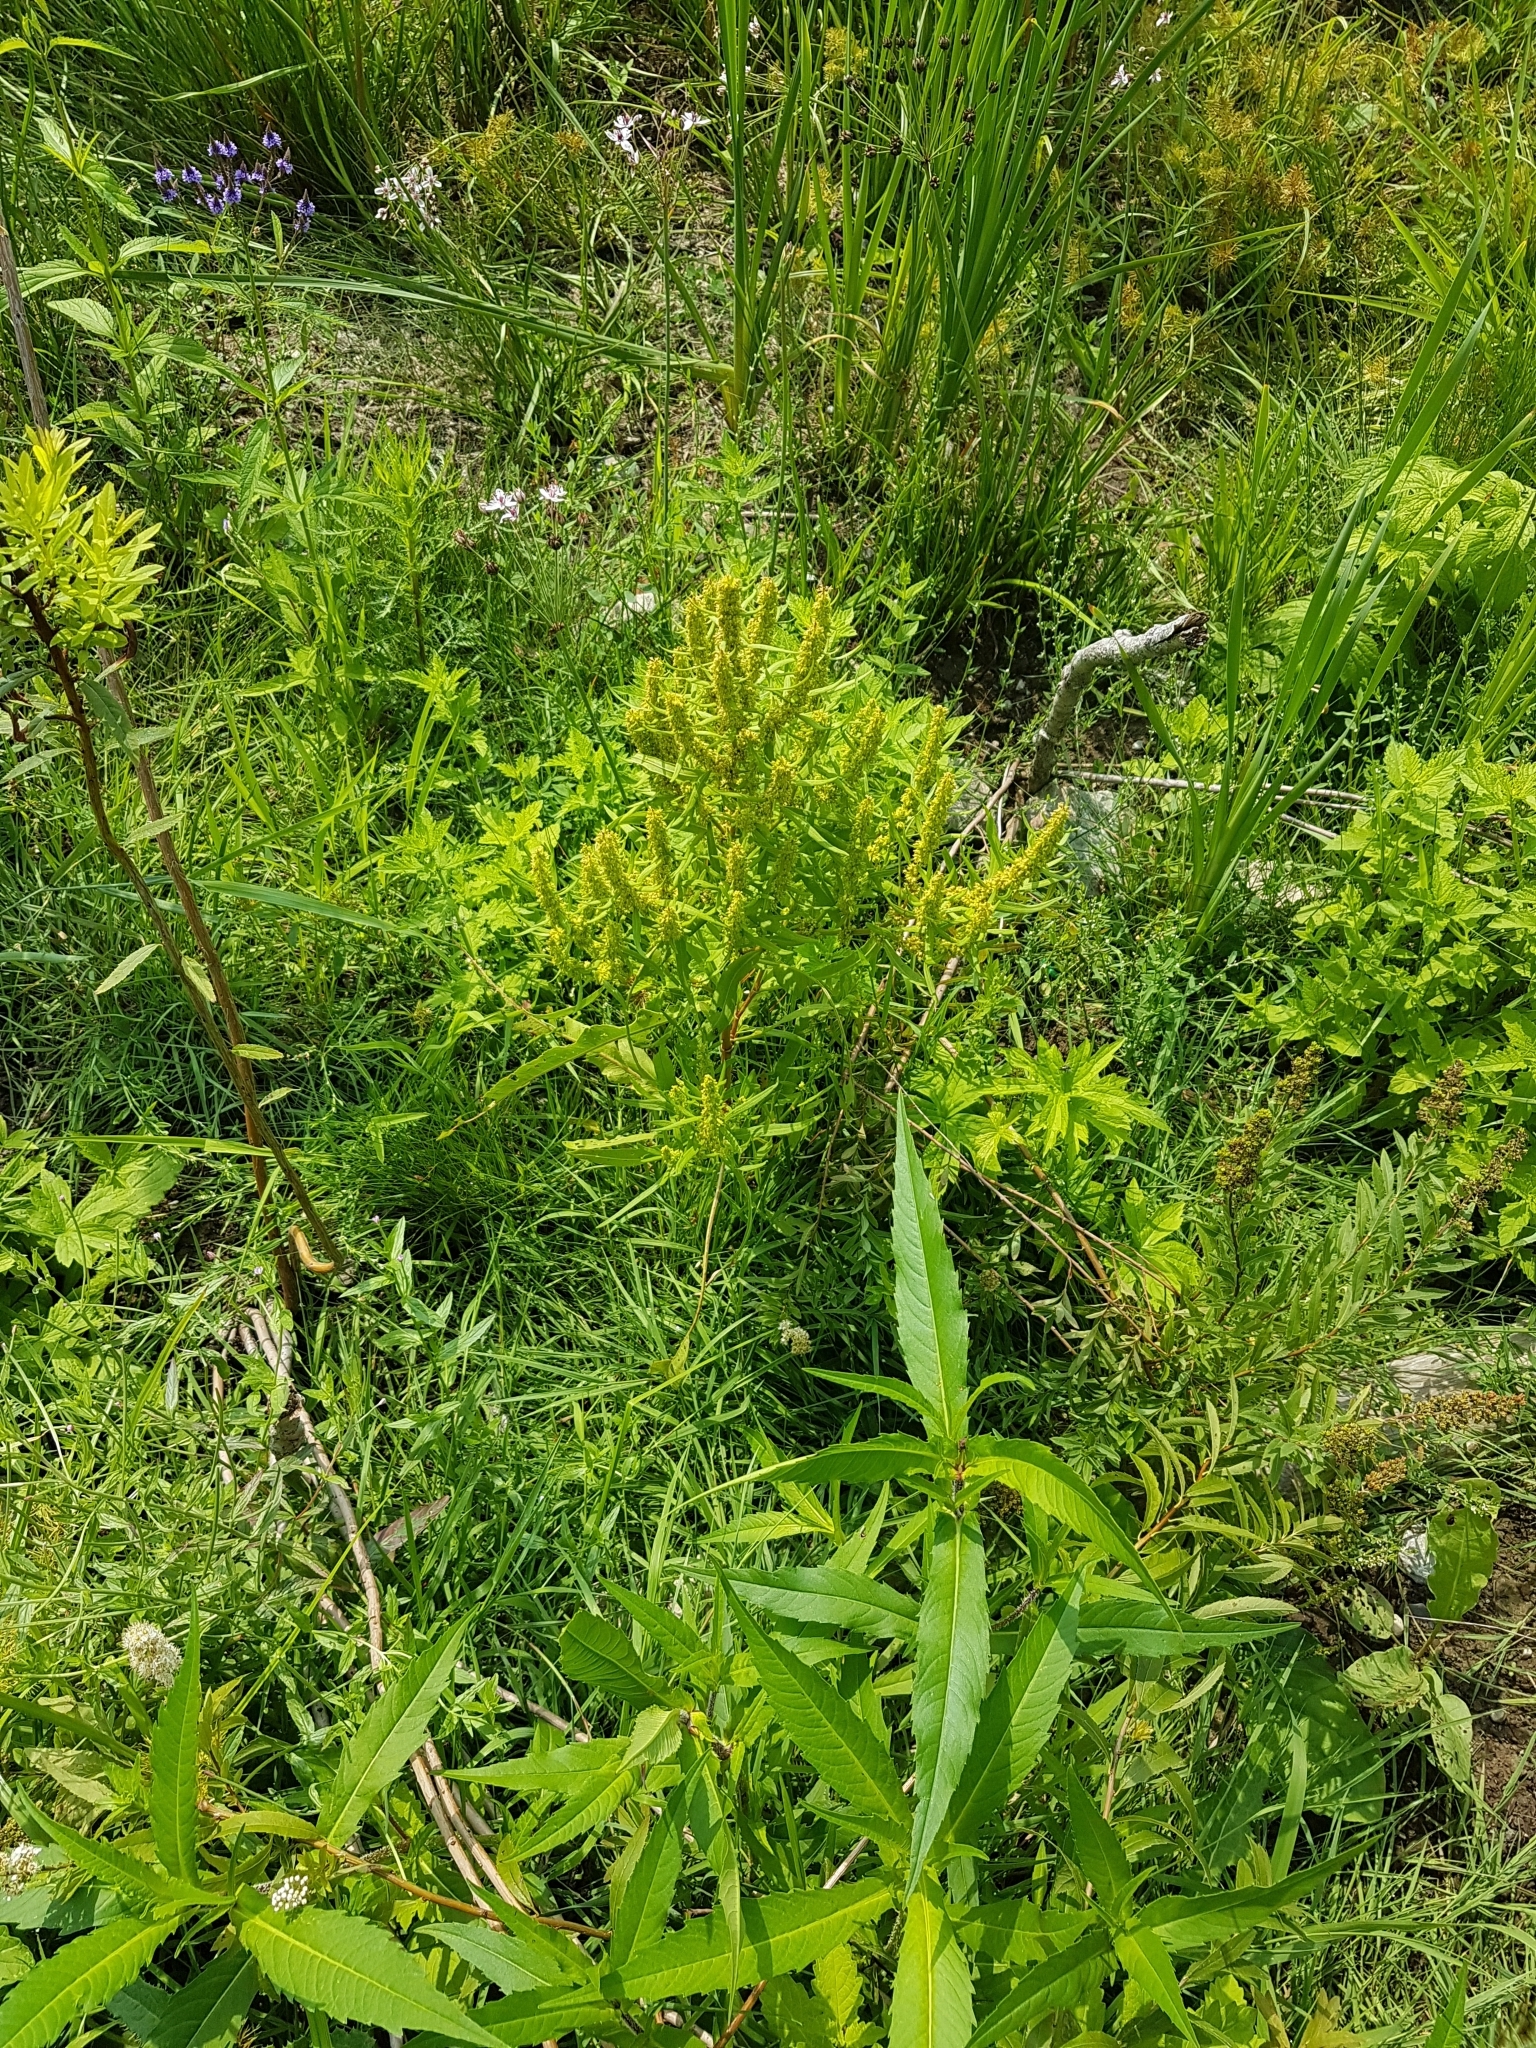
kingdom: Plantae
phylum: Tracheophyta
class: Magnoliopsida
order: Caryophyllales
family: Polygonaceae
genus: Rumex
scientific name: Rumex fueginus
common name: American golden dock
